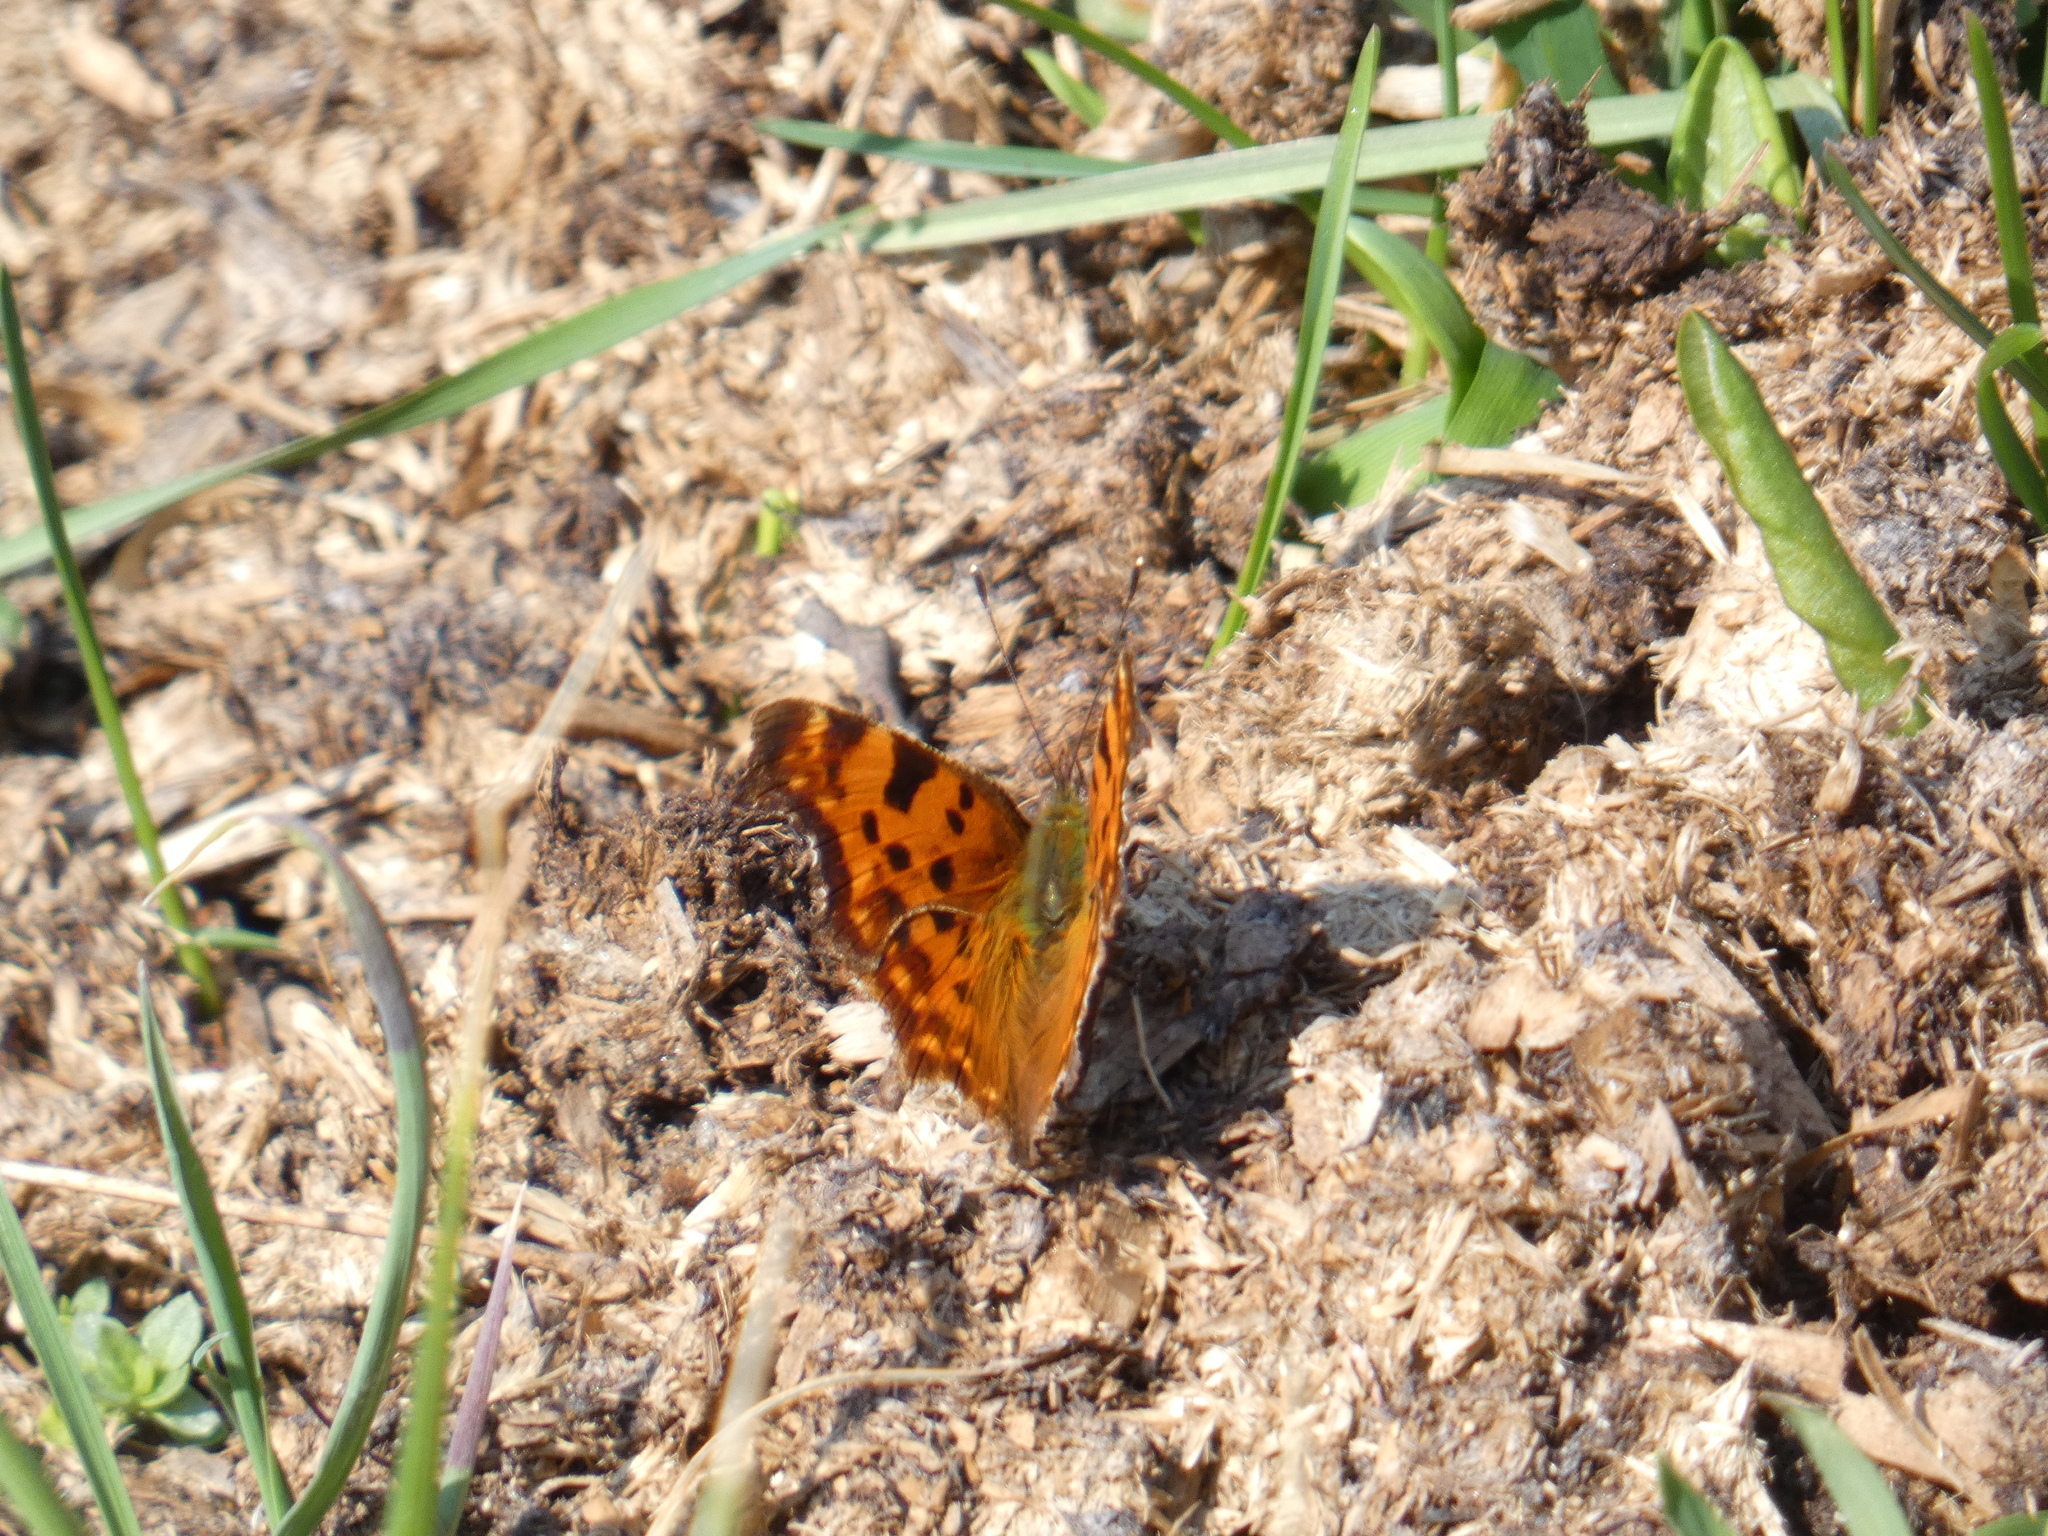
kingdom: Animalia
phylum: Arthropoda
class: Insecta
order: Lepidoptera
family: Nymphalidae
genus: Polygonia
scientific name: Polygonia c-album
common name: Comma
